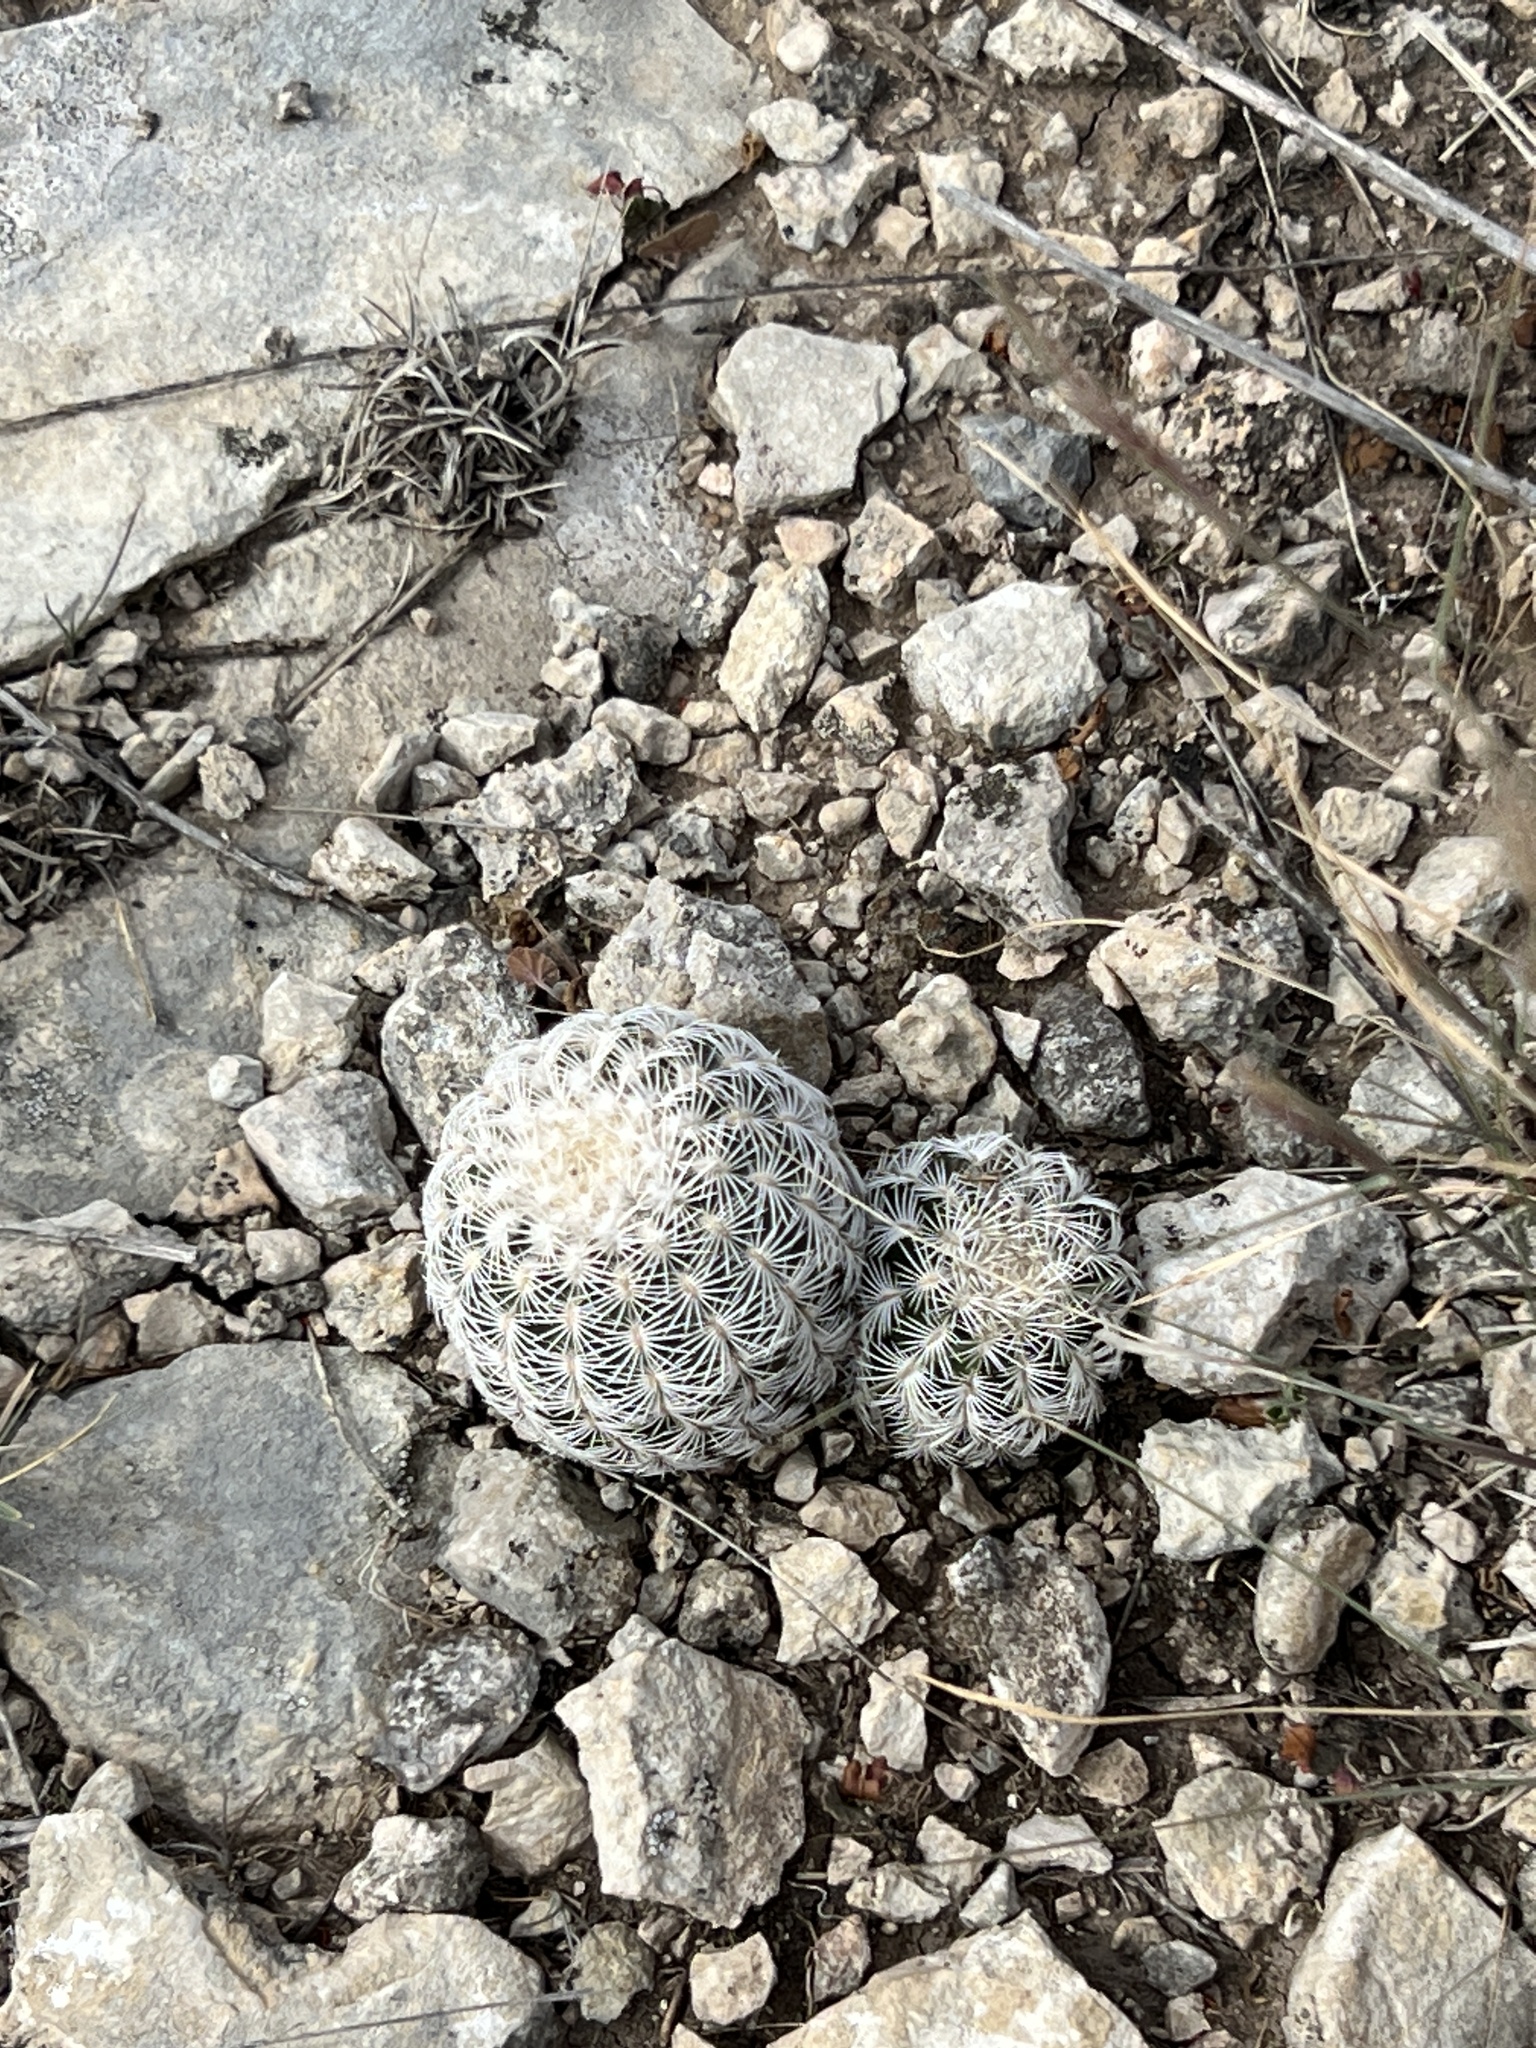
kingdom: Plantae
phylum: Tracheophyta
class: Magnoliopsida
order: Caryophyllales
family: Cactaceae
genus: Echinocereus
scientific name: Echinocereus reichenbachii
